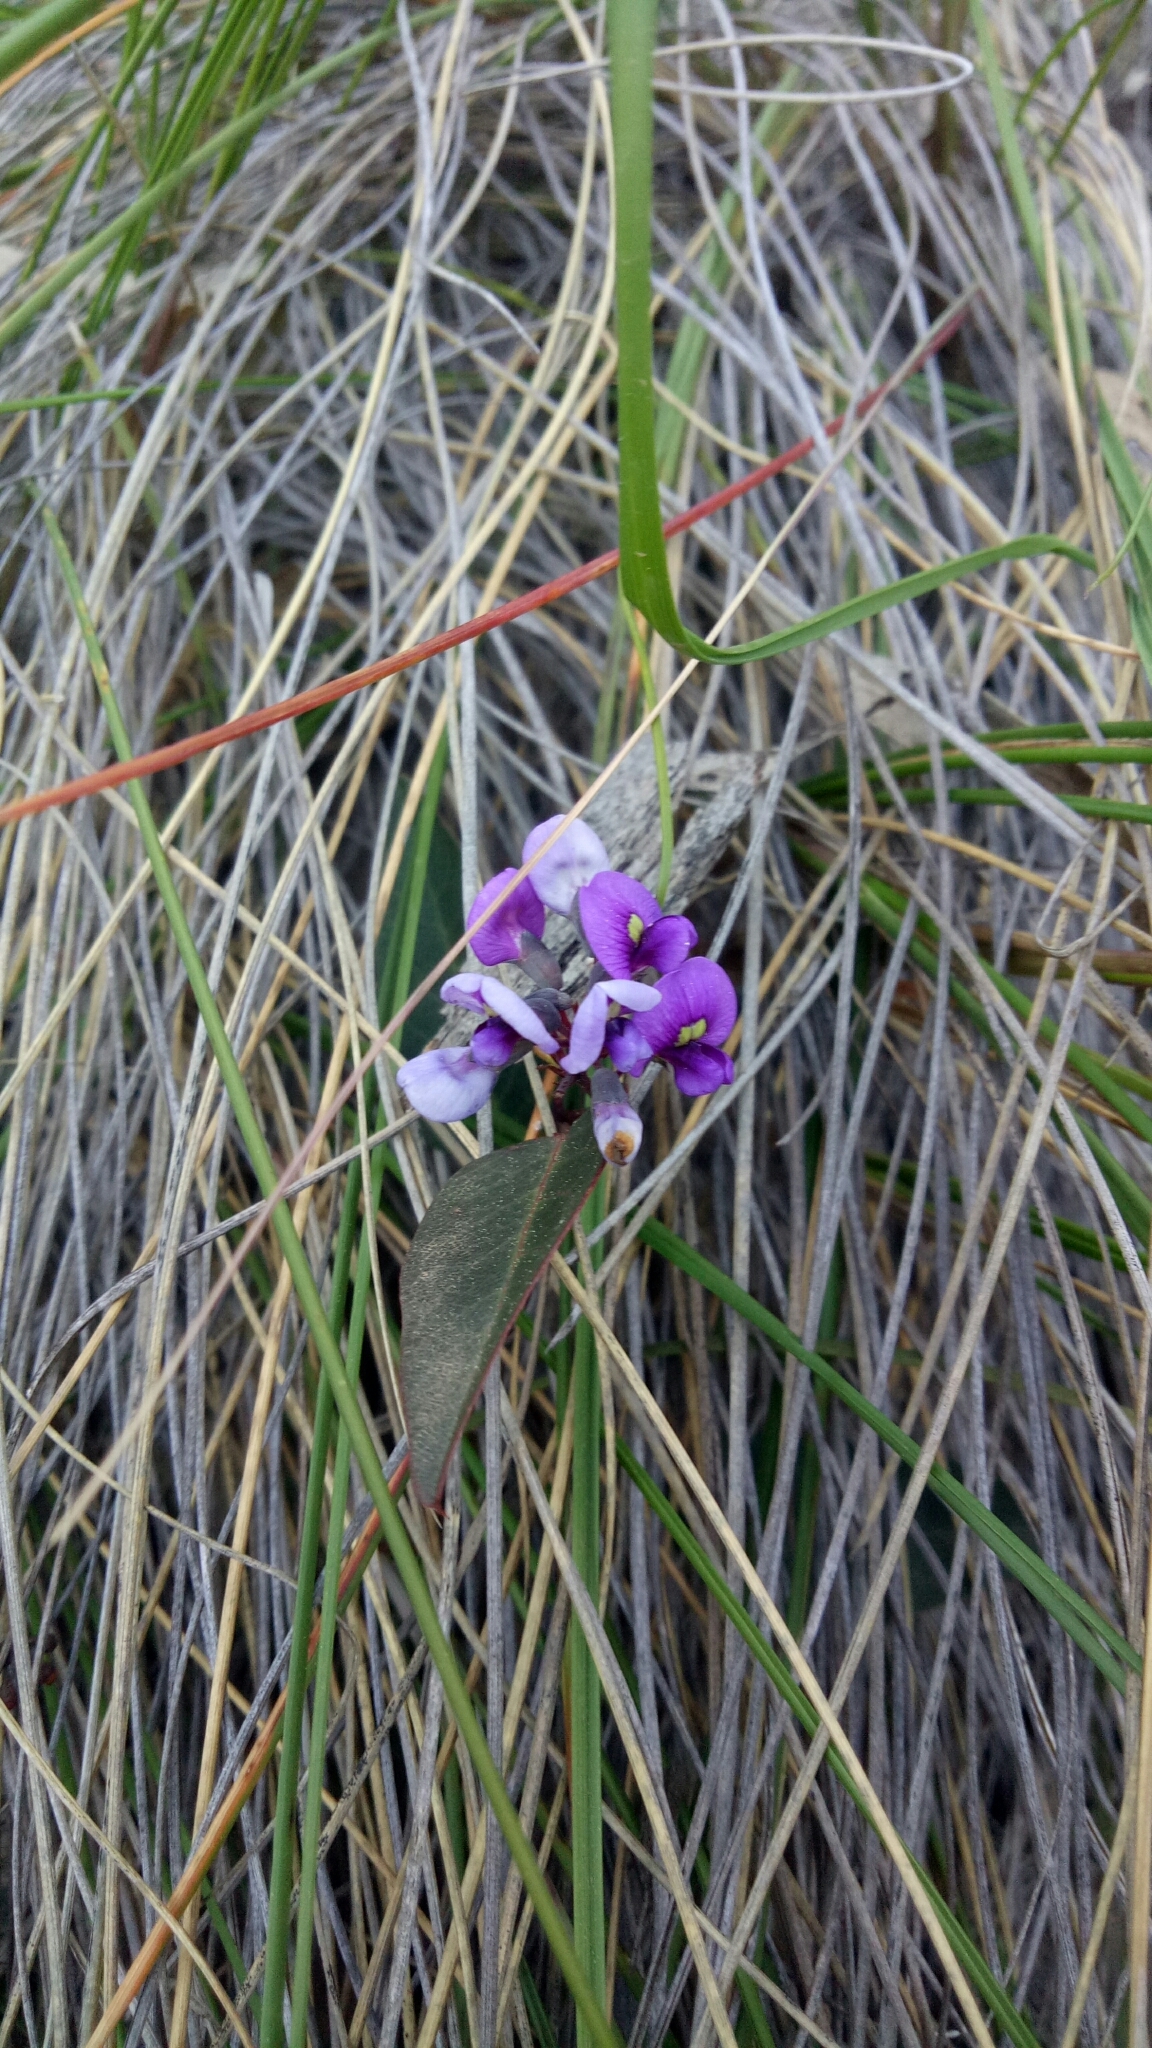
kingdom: Plantae
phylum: Tracheophyta
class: Magnoliopsida
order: Fabales
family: Fabaceae
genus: Hardenbergia
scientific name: Hardenbergia violacea
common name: Coral-pea
